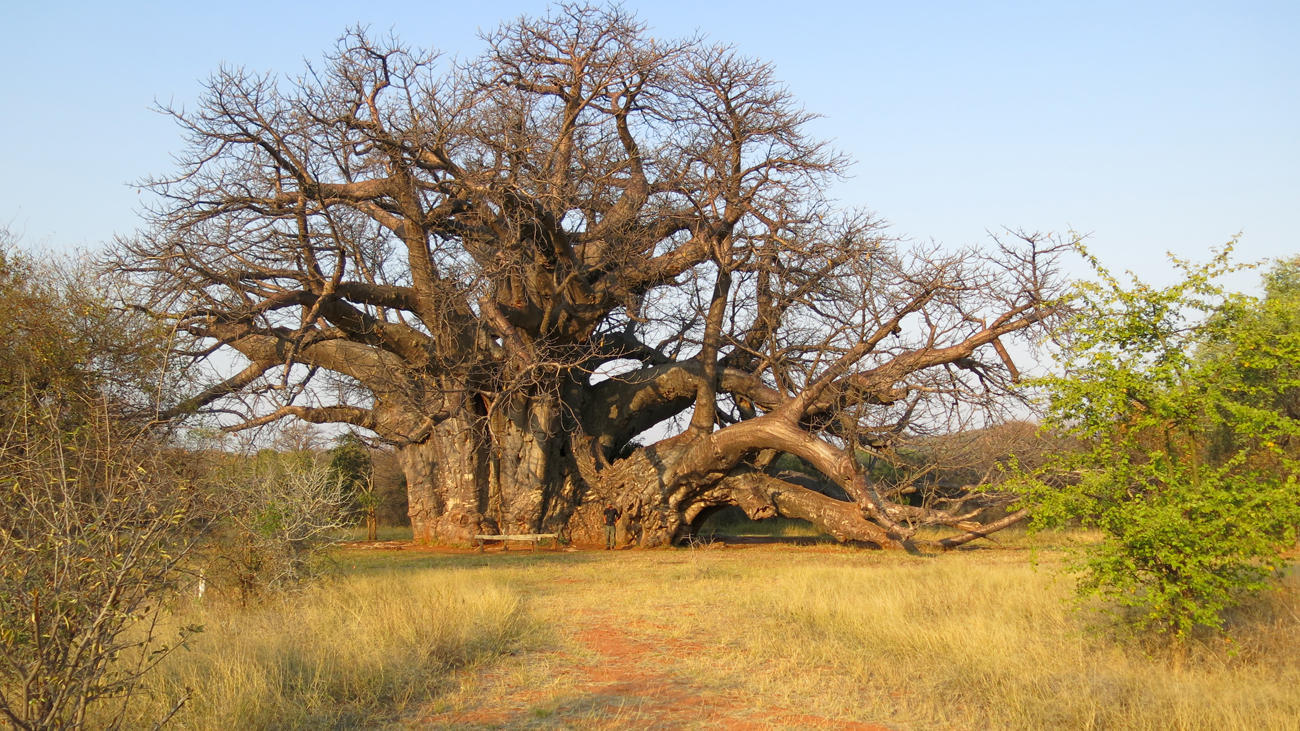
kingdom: Plantae
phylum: Tracheophyta
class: Magnoliopsida
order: Malvales
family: Malvaceae
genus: Adansonia
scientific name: Adansonia digitata
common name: Dead-rat-tree
